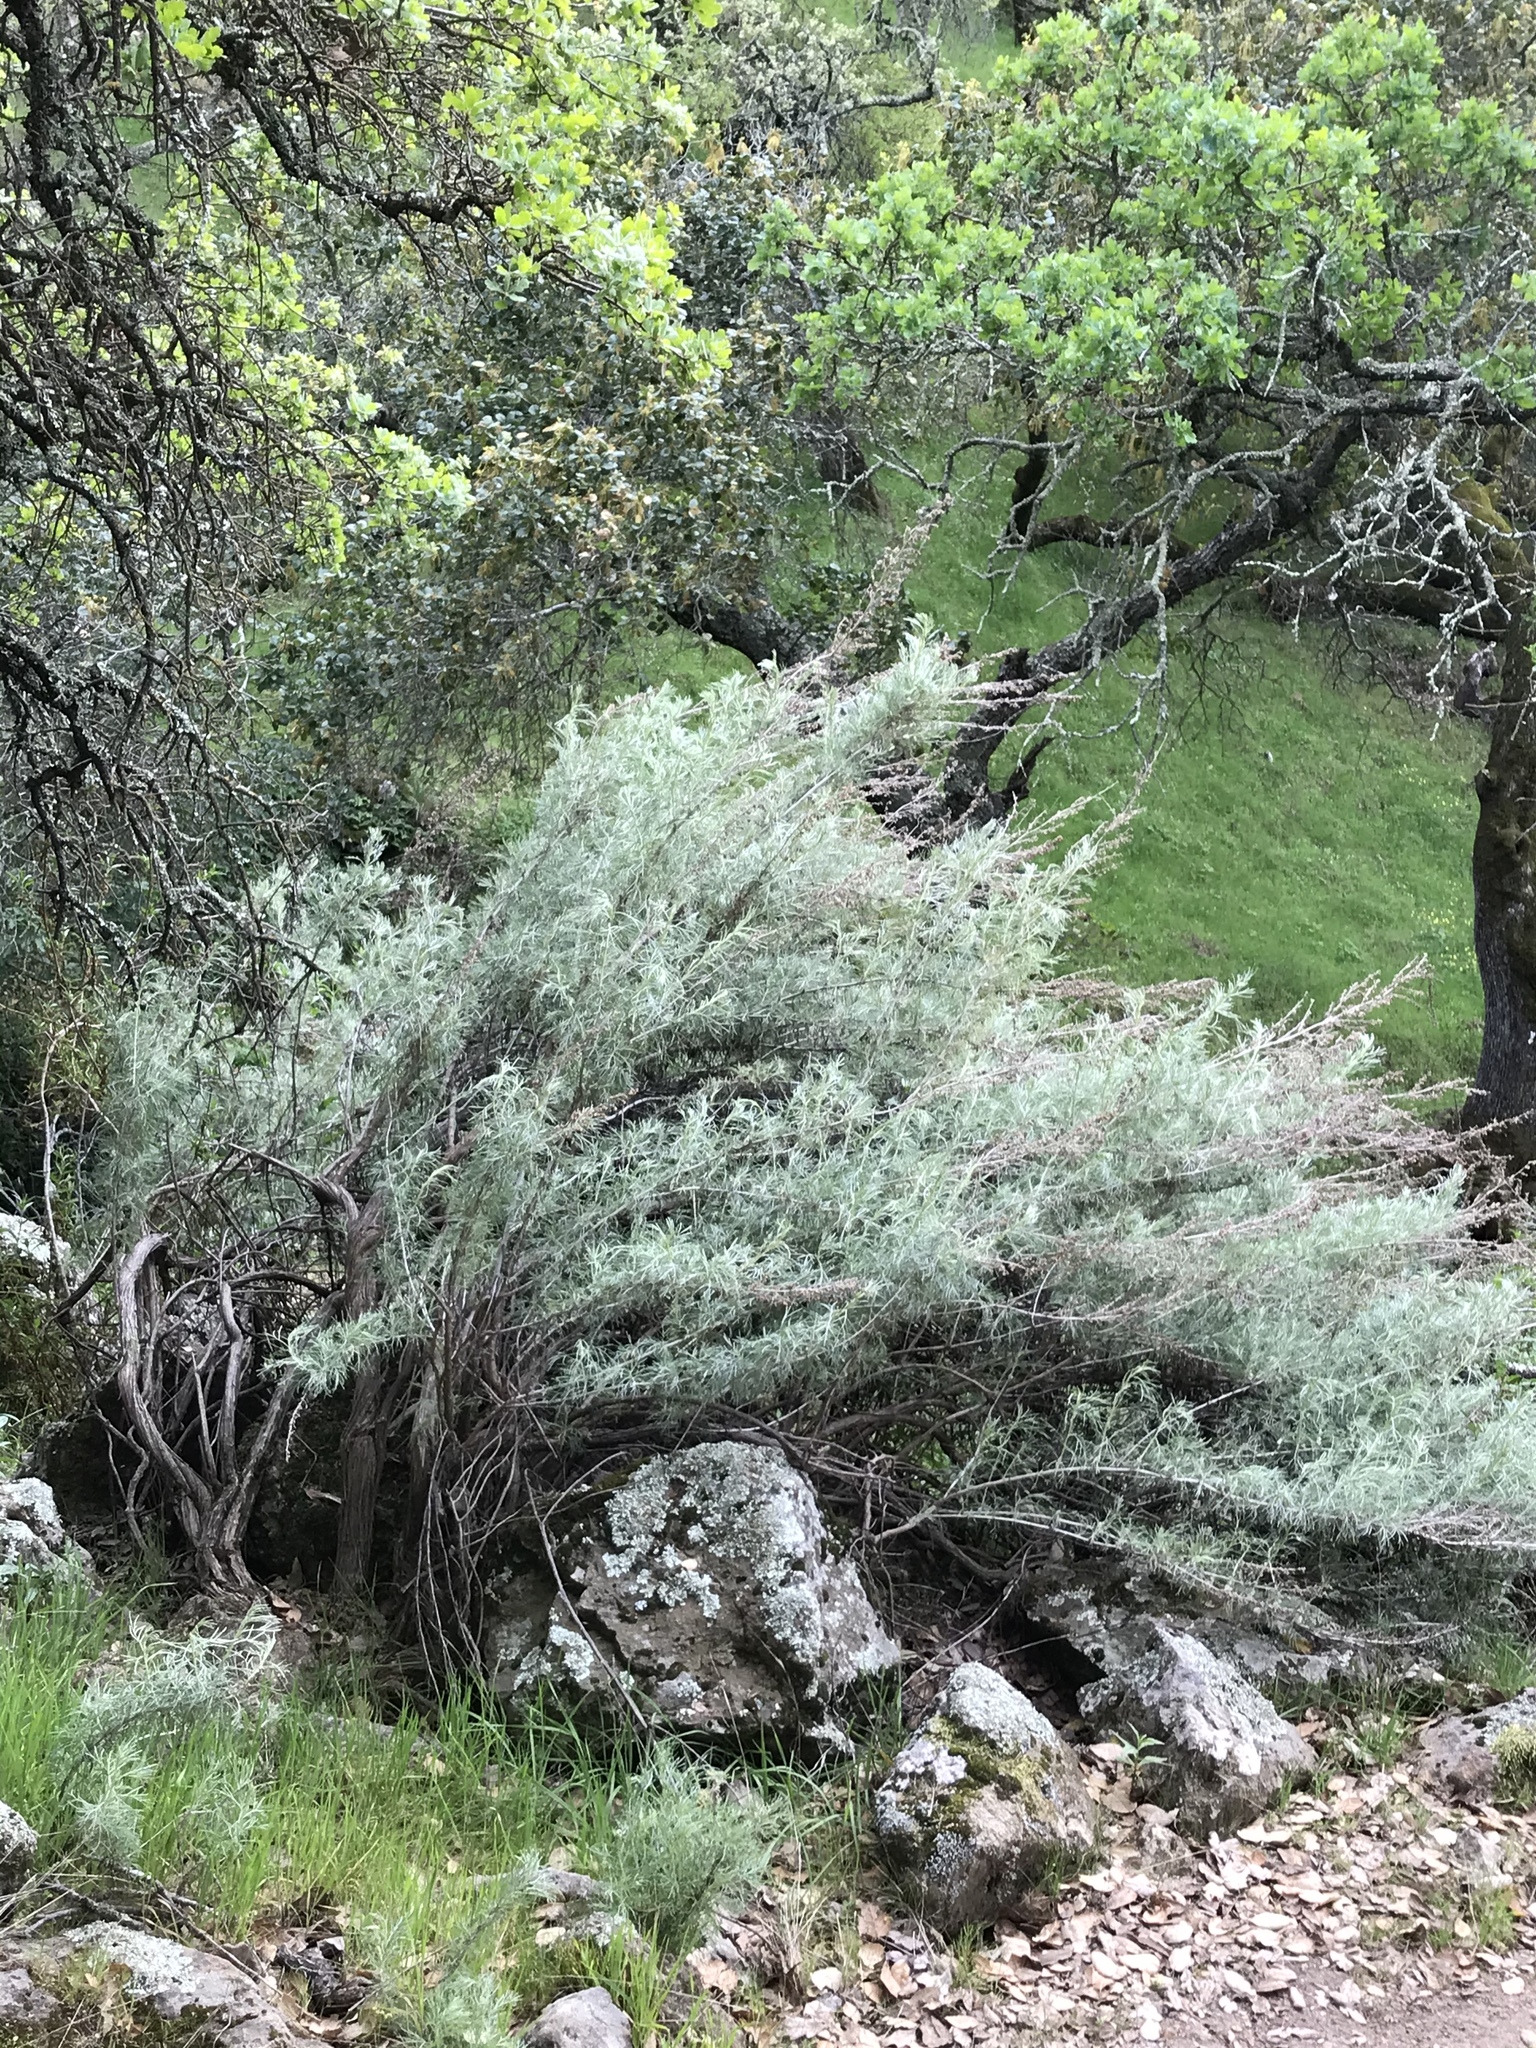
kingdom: Plantae
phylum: Tracheophyta
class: Magnoliopsida
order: Asterales
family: Asteraceae
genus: Artemisia
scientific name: Artemisia californica
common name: California sagebrush
